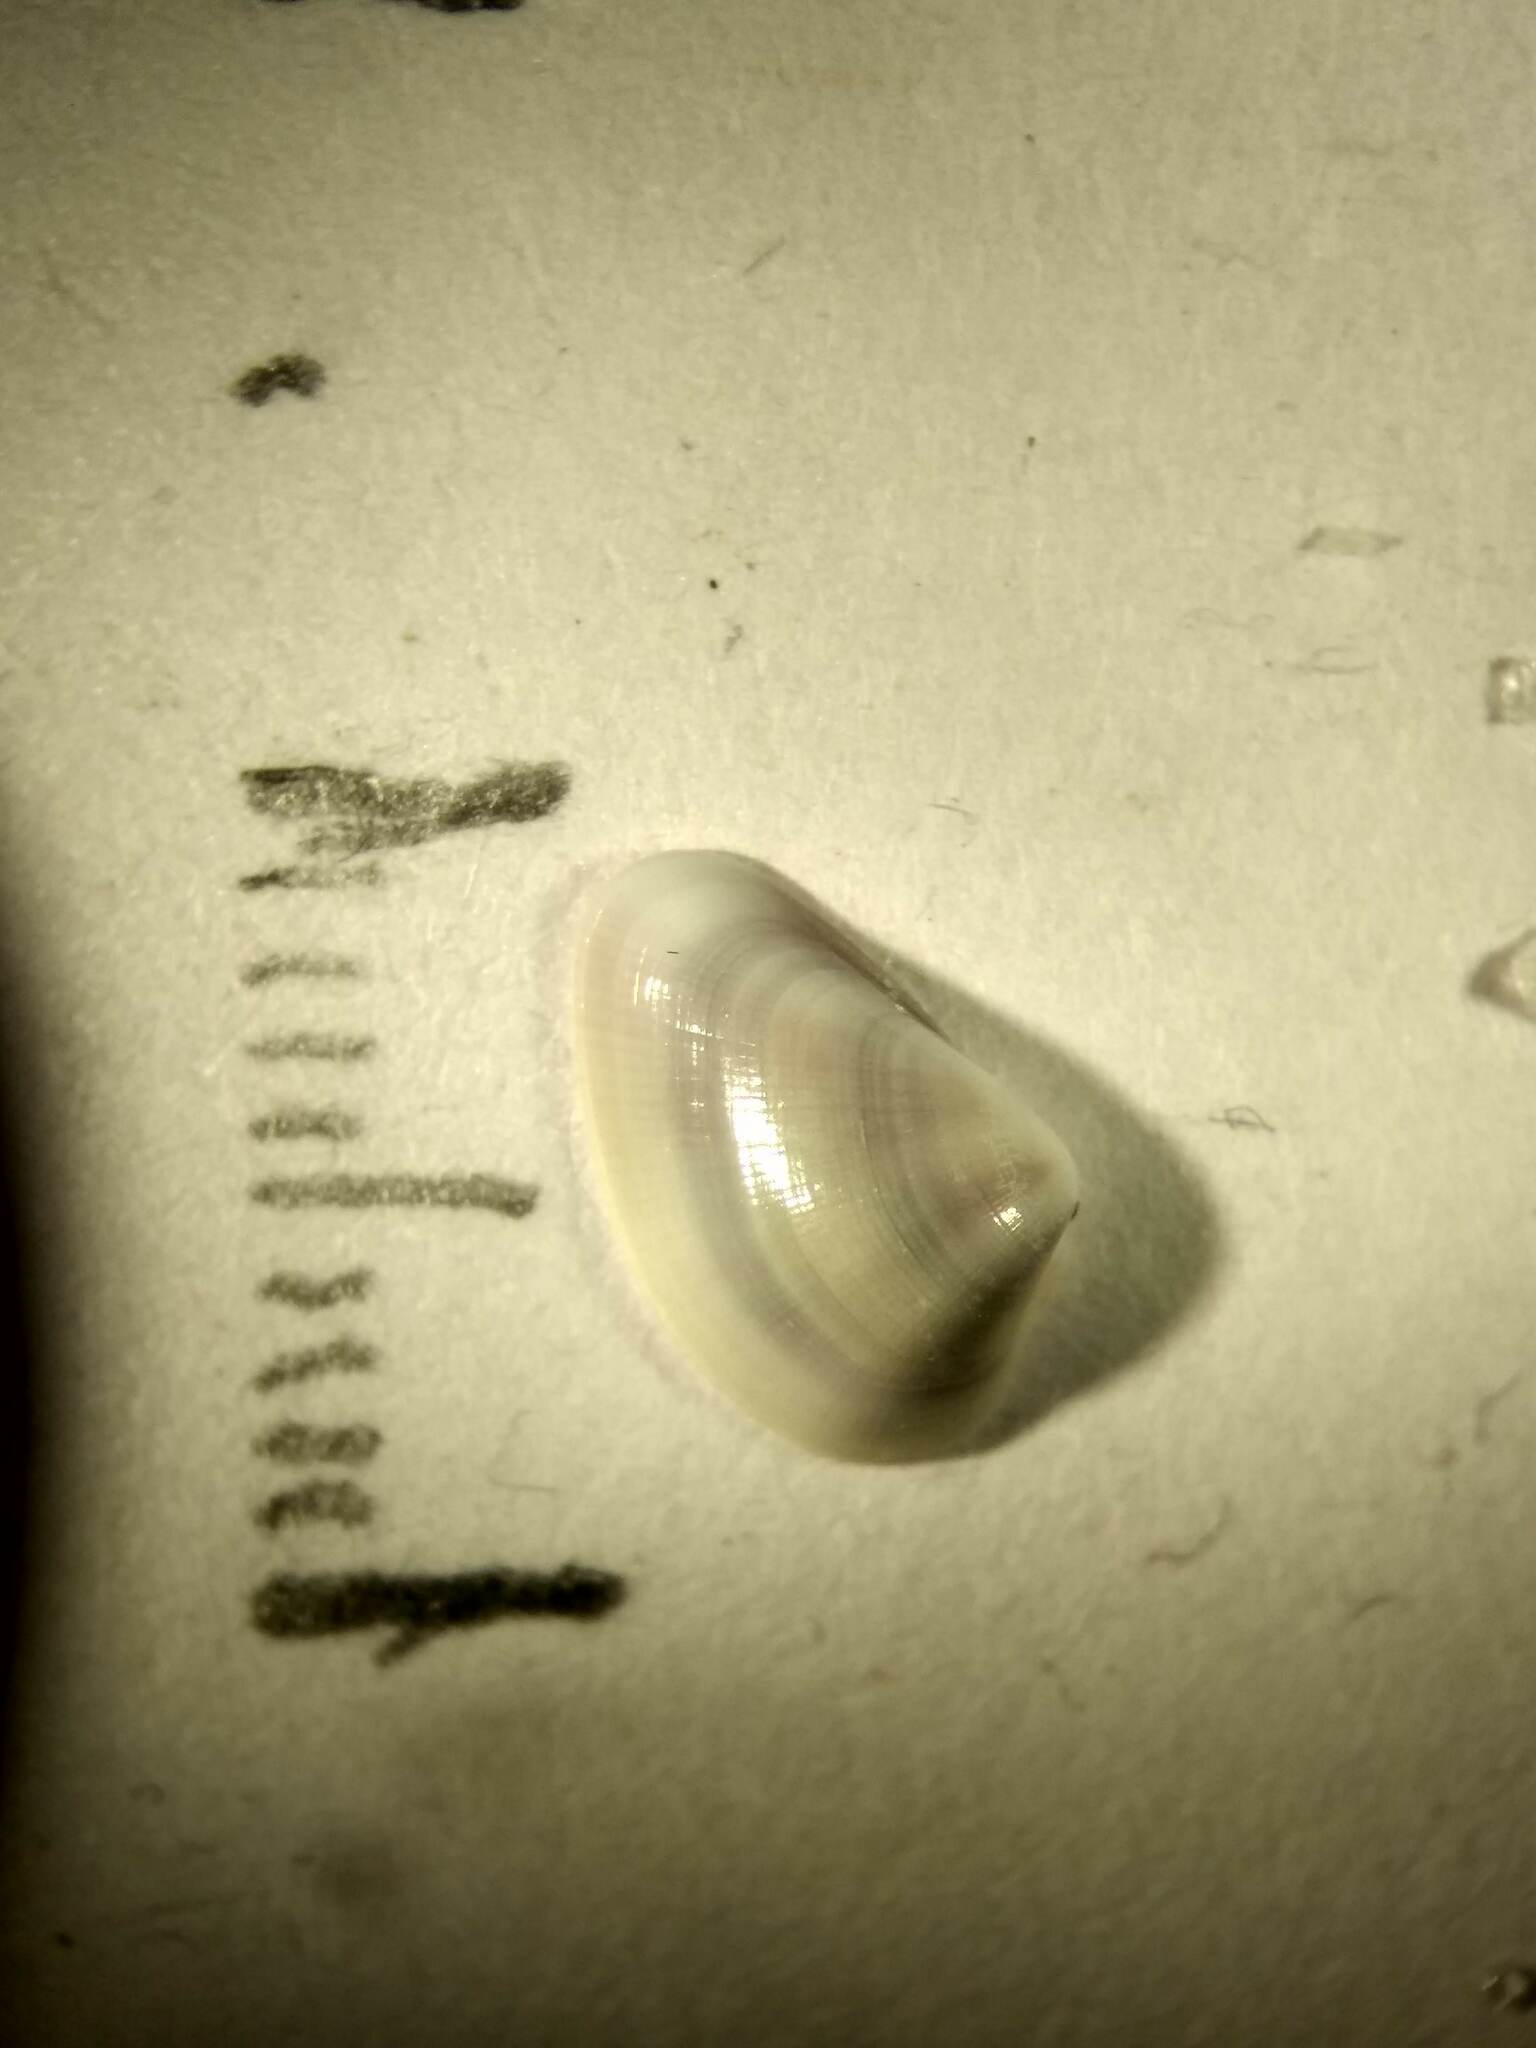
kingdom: Animalia
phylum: Mollusca
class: Bivalvia
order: Cardiida
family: Donacidae
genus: Donax
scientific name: Donax texasianus
